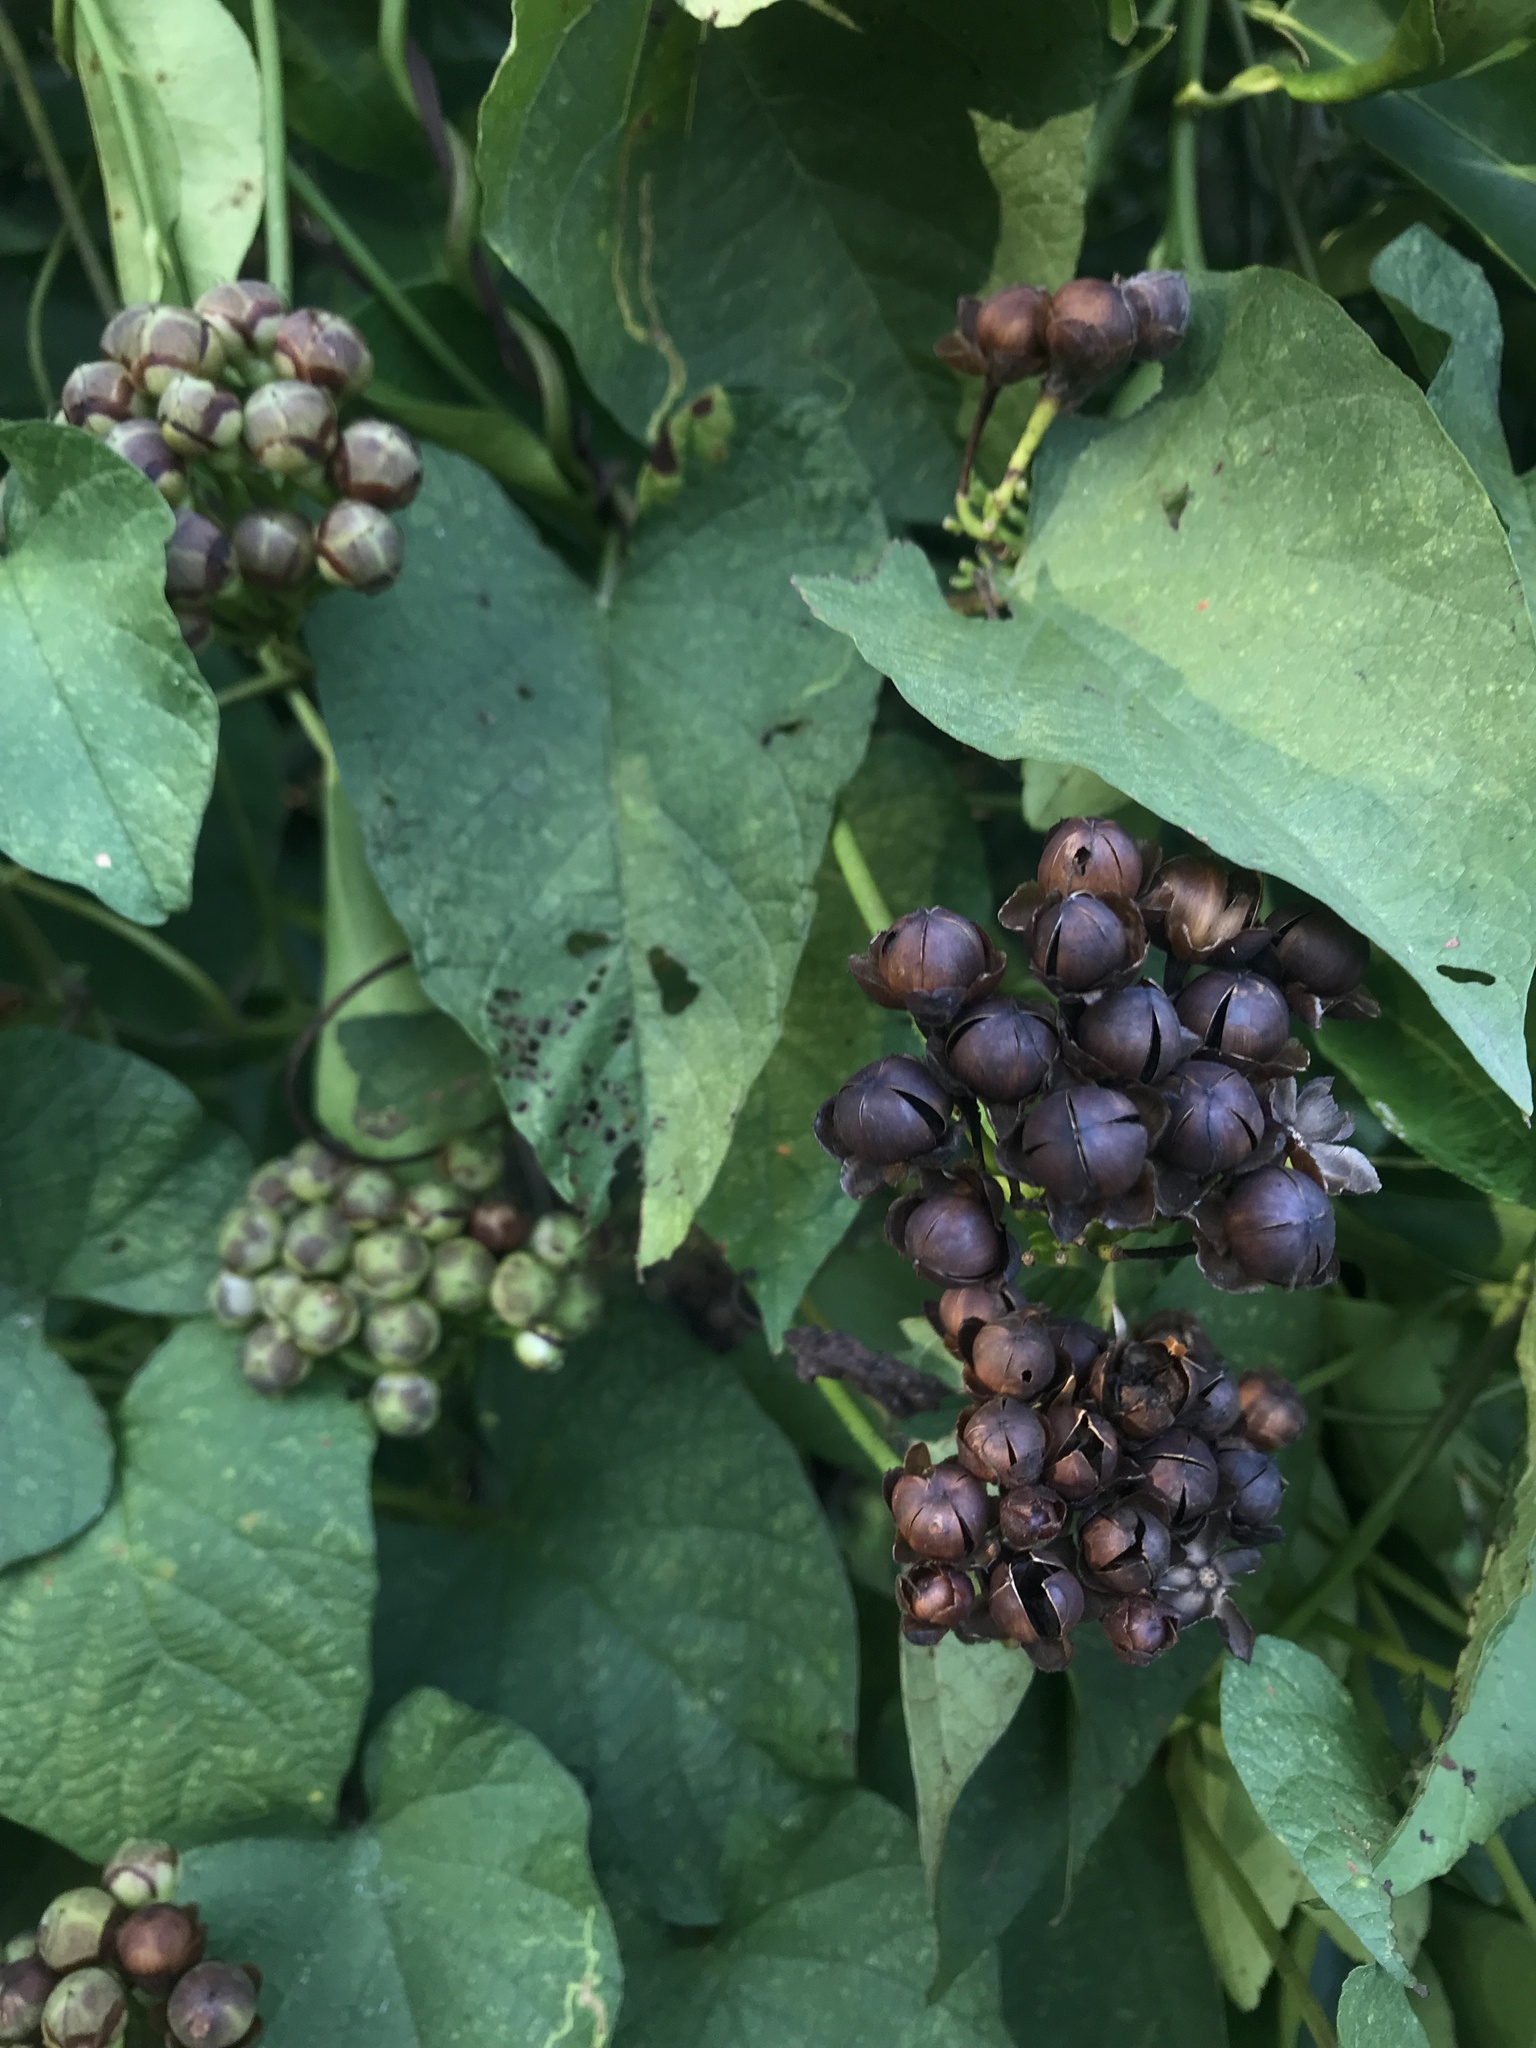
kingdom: Plantae
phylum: Tracheophyta
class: Magnoliopsida
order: Solanales
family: Convolvulaceae
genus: Camonea
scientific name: Camonea umbellata
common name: Hogvine
